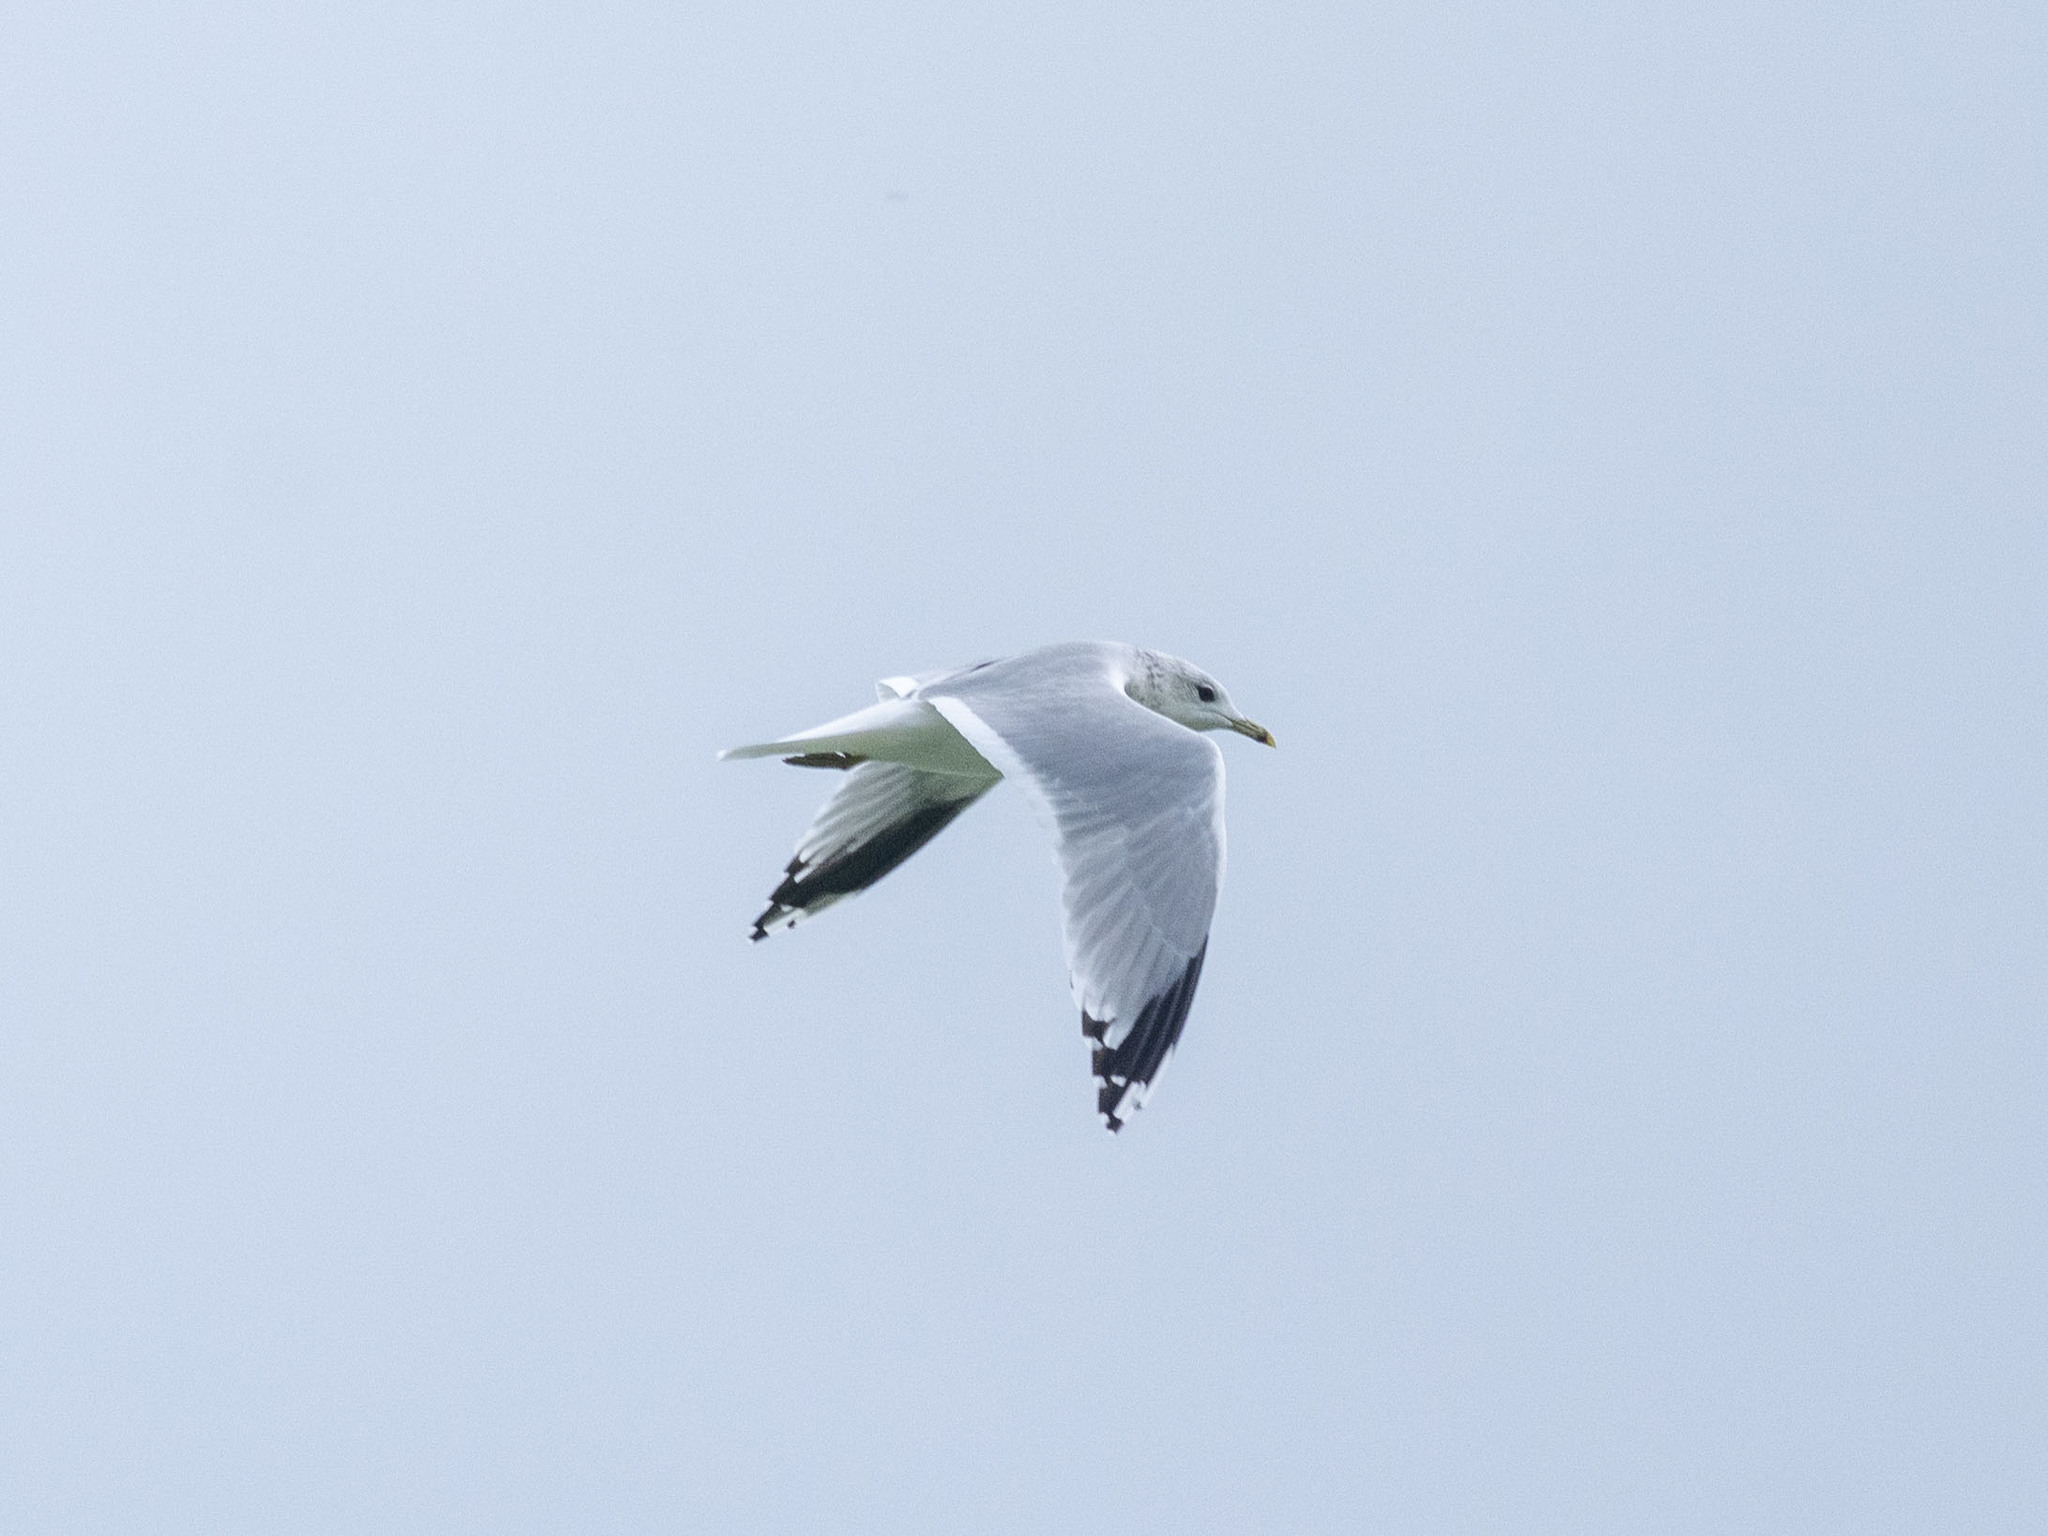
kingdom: Animalia
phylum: Chordata
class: Aves
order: Charadriiformes
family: Laridae
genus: Larus
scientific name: Larus canus
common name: Mew gull
